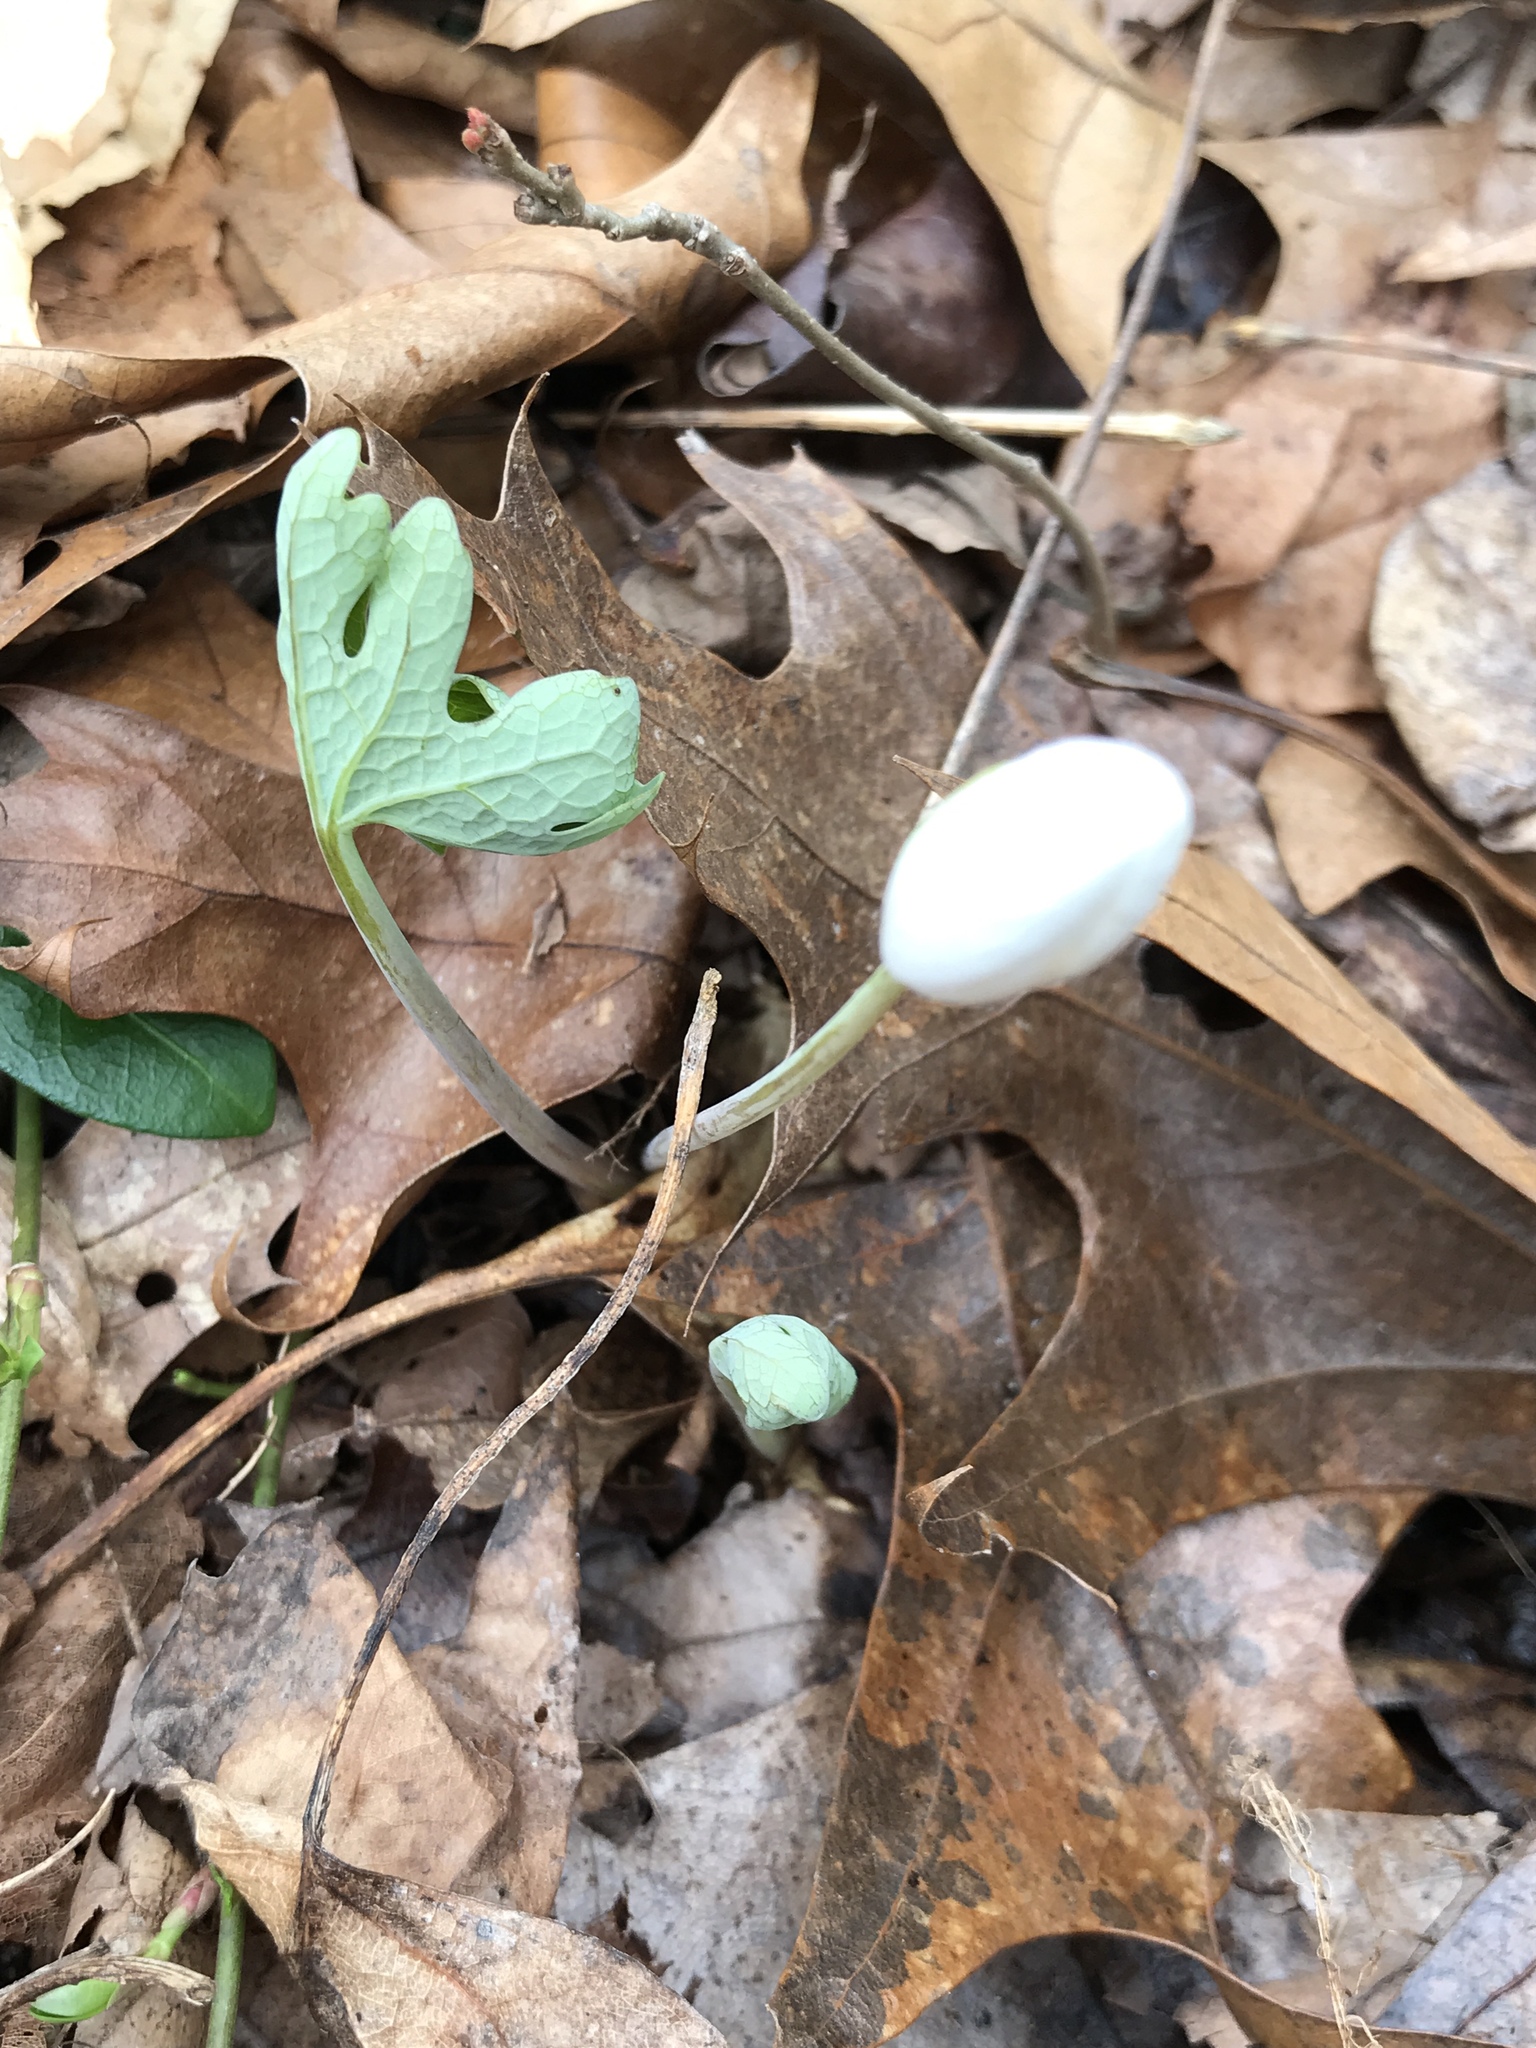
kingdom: Plantae
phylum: Tracheophyta
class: Magnoliopsida
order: Ranunculales
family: Papaveraceae
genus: Sanguinaria
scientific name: Sanguinaria canadensis
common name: Bloodroot
